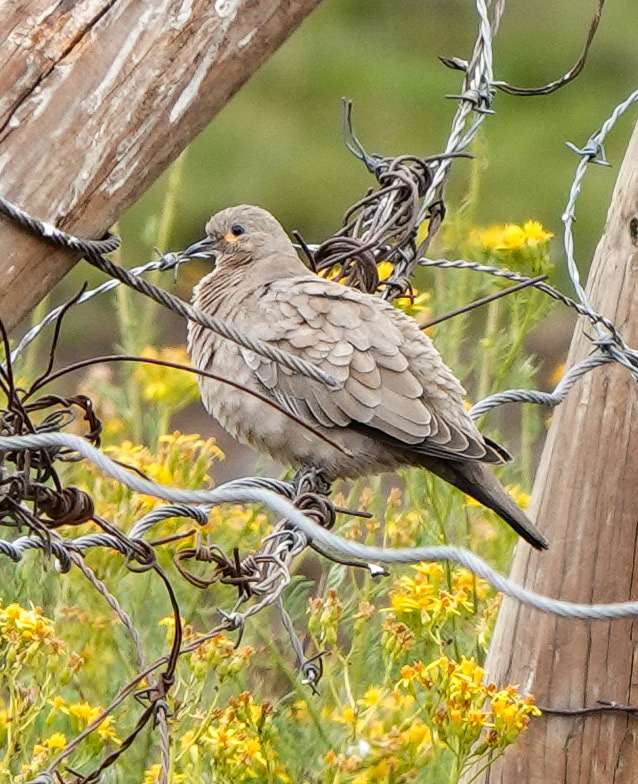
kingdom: Animalia
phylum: Chordata
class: Aves
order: Columbiformes
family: Columbidae
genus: Metriopelia
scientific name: Metriopelia melanoptera
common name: Black-winged ground dove
